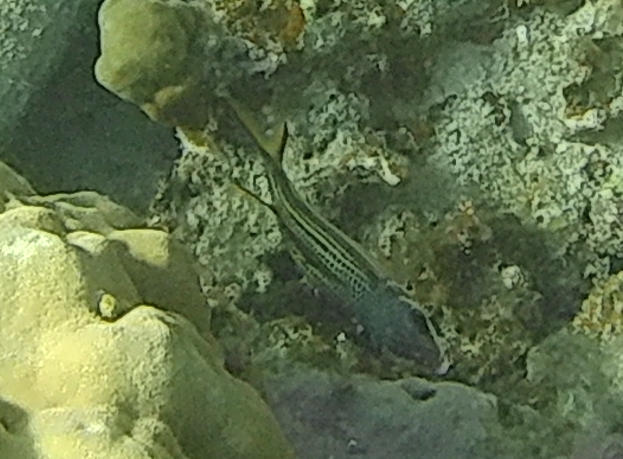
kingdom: Animalia
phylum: Chordata
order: Beryciformes
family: Holocentridae
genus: Neoniphon
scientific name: Neoniphon sammara
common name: Sammara squirrelfish
